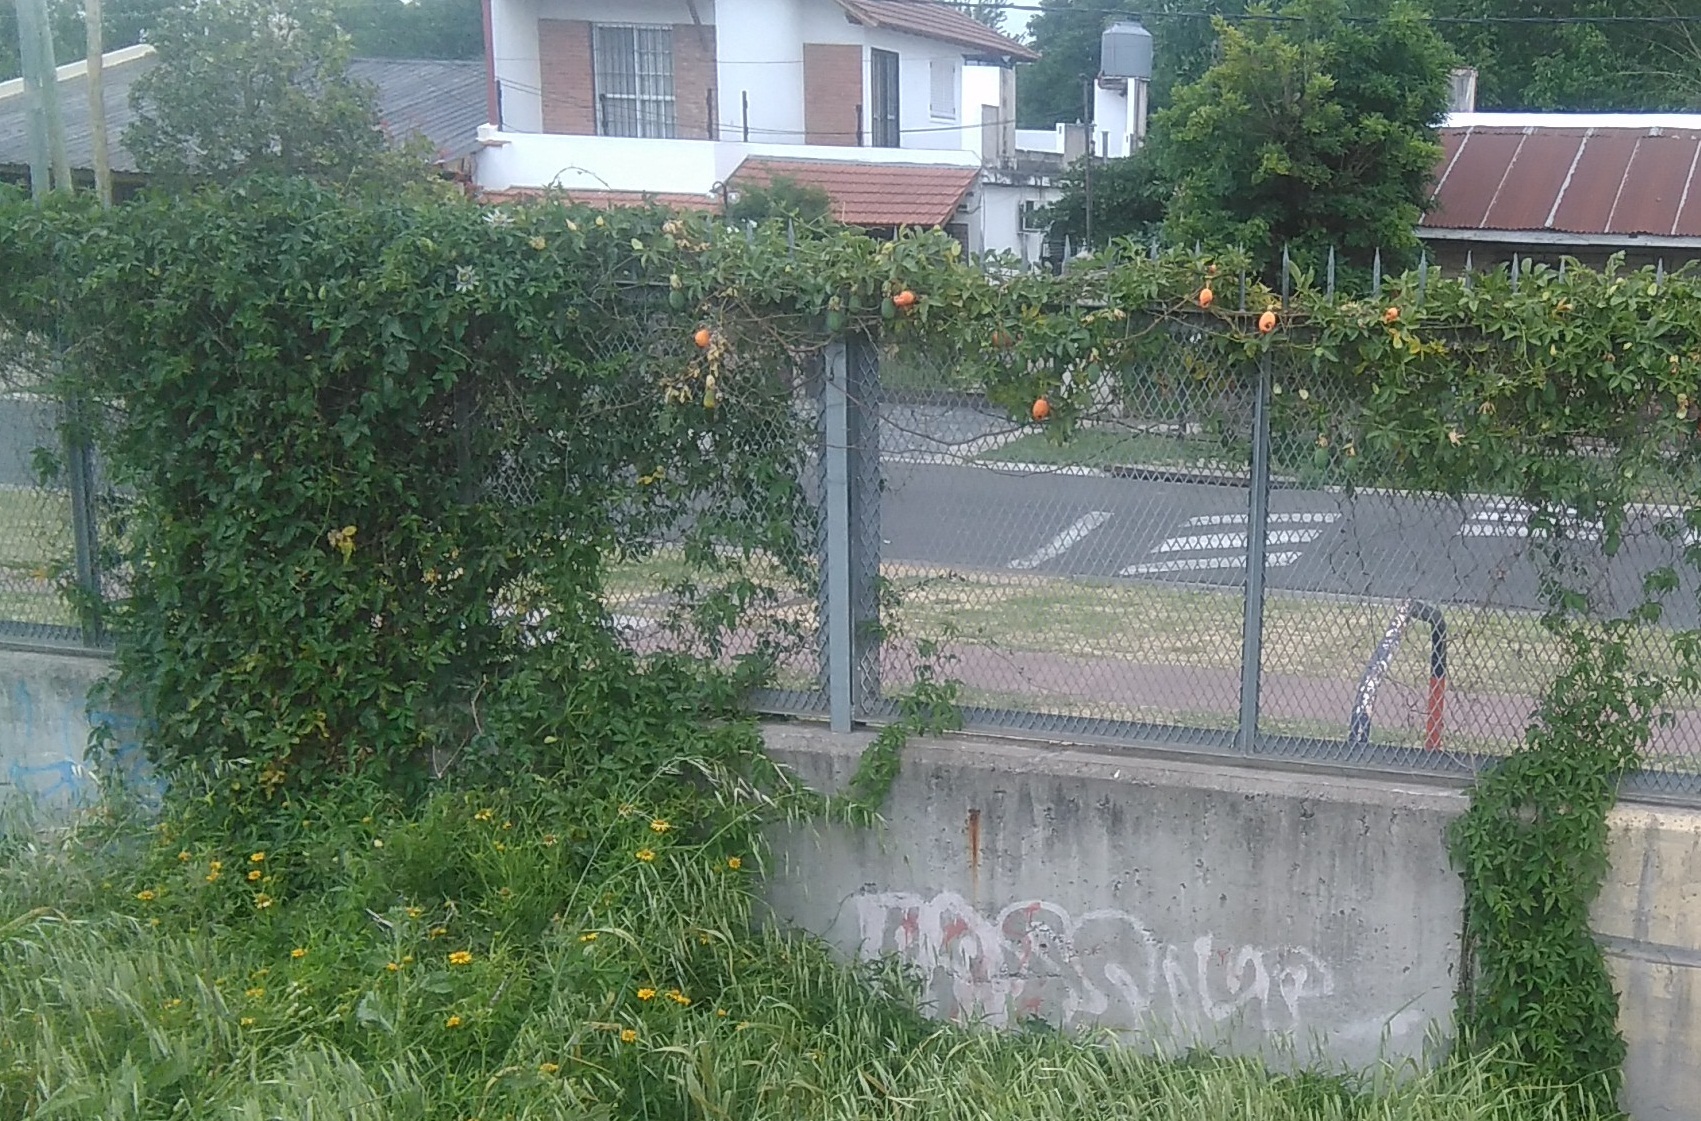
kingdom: Plantae
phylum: Tracheophyta
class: Magnoliopsida
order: Malpighiales
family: Passifloraceae
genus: Passiflora
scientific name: Passiflora caerulea
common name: Blue passionflower
